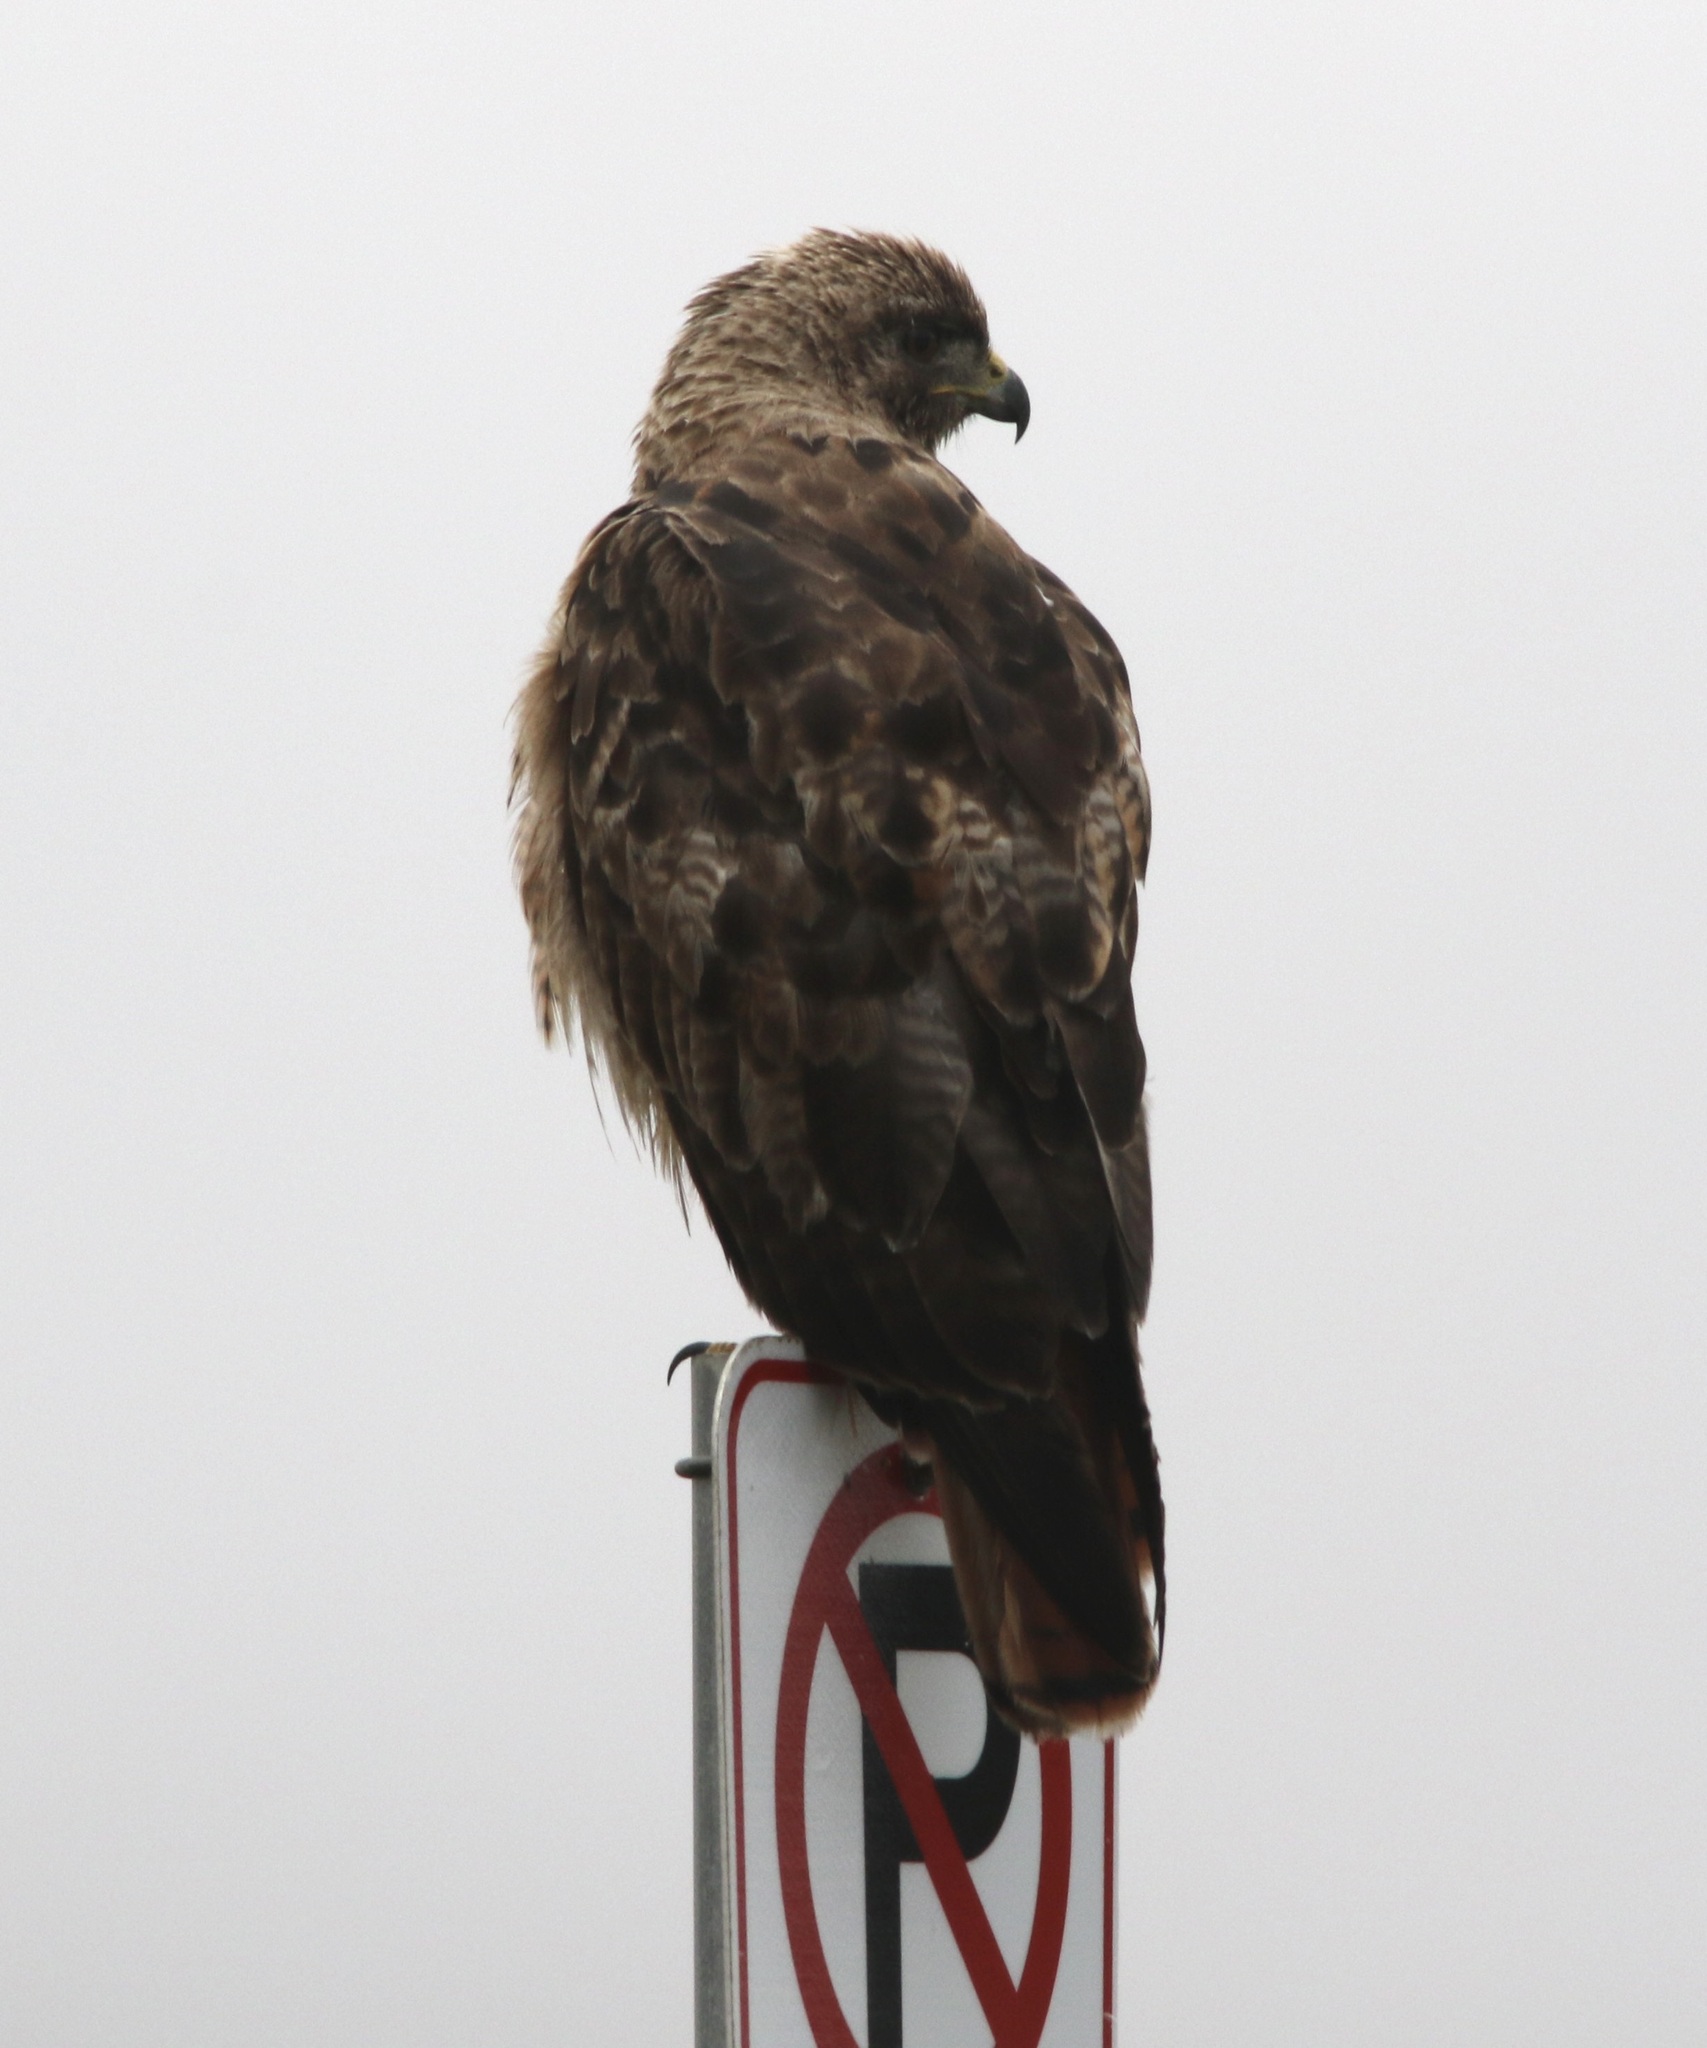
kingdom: Animalia
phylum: Chordata
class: Aves
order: Accipitriformes
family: Accipitridae
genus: Buteo
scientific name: Buteo jamaicensis
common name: Red-tailed hawk
